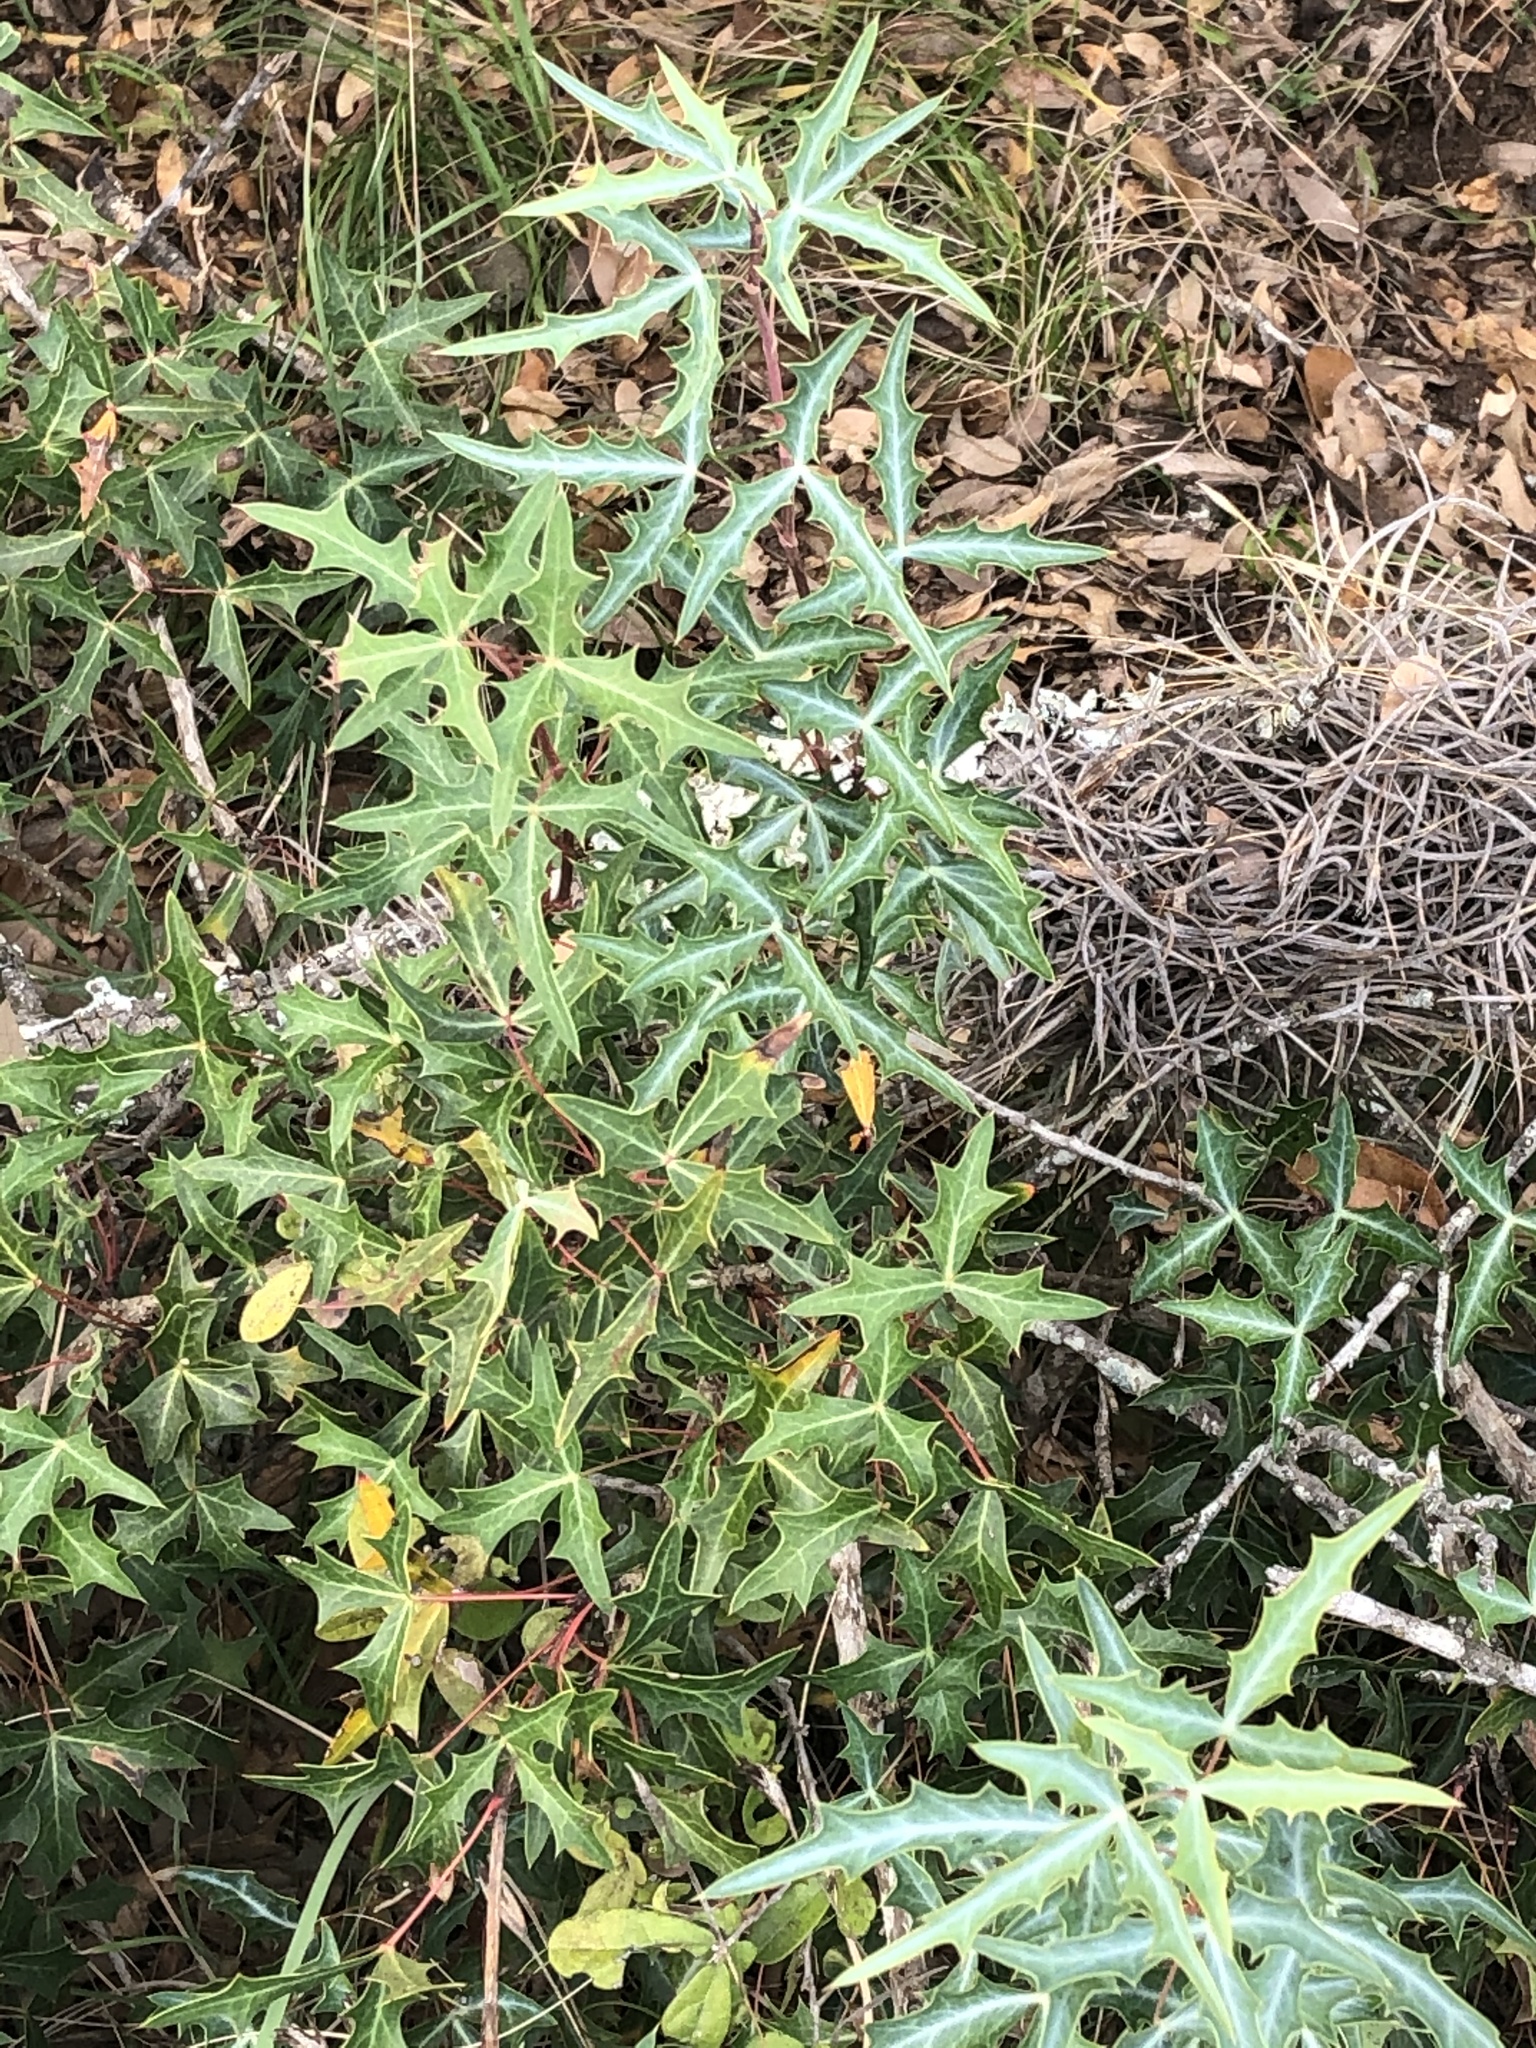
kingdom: Plantae
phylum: Tracheophyta
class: Magnoliopsida
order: Ranunculales
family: Berberidaceae
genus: Alloberberis
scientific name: Alloberberis trifoliolata
